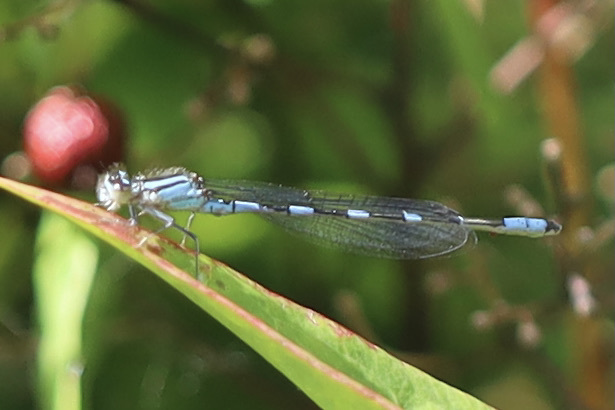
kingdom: Animalia
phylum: Arthropoda
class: Insecta
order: Odonata
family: Coenagrionidae
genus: Enallagma
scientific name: Enallagma carunculatum
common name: Tule bluet
